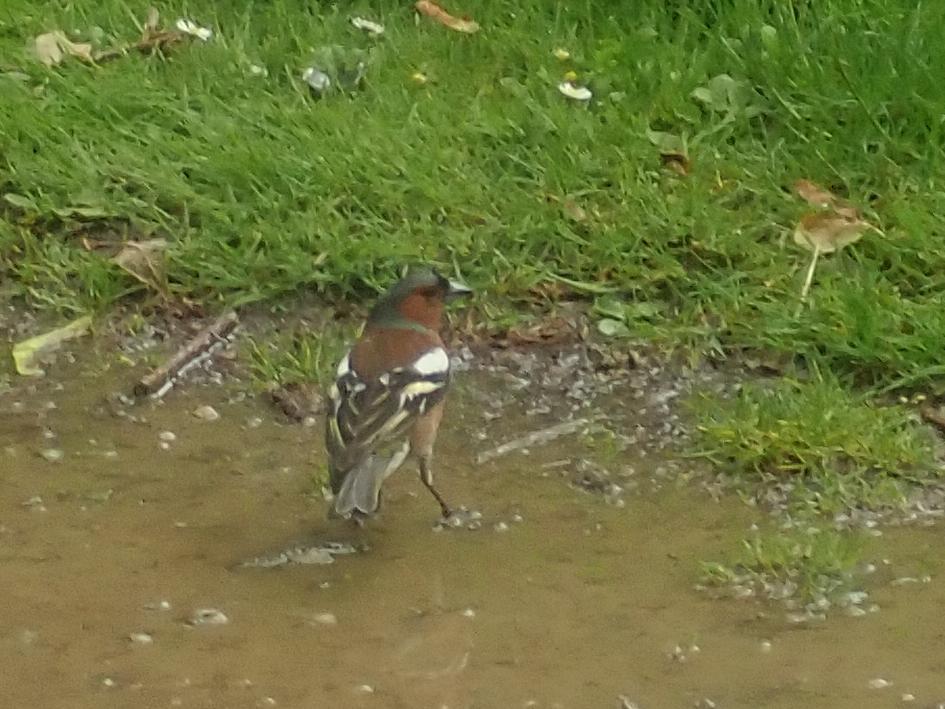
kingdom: Animalia
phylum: Chordata
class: Aves
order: Passeriformes
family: Fringillidae
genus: Fringilla
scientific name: Fringilla coelebs
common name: Common chaffinch
